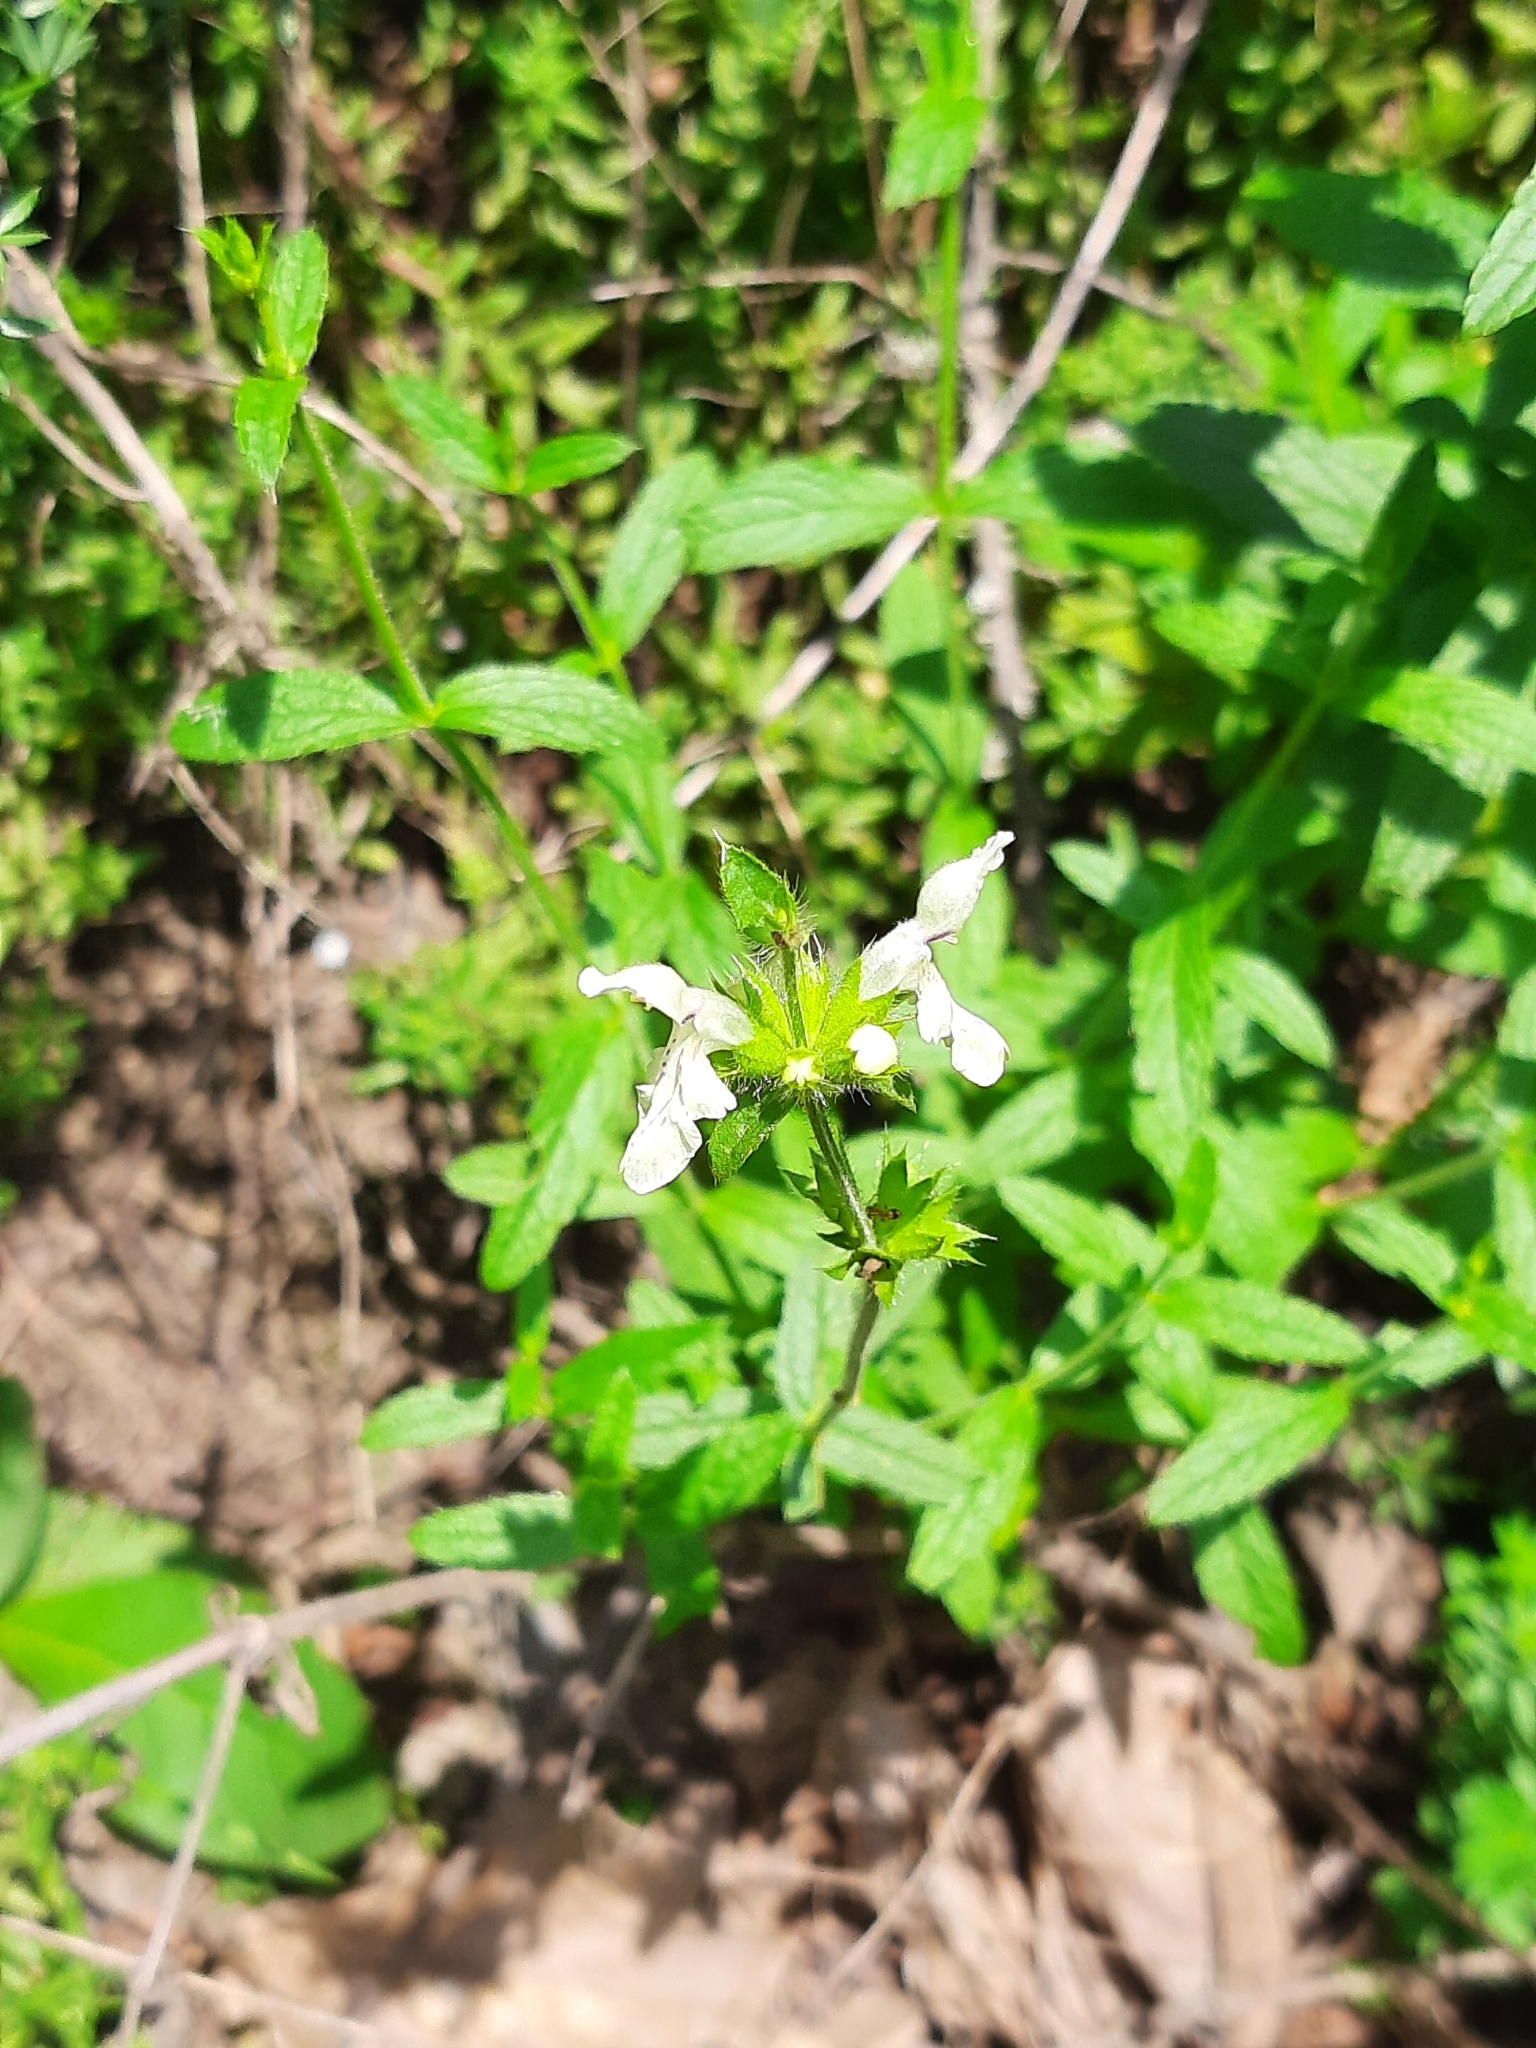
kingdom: Plantae
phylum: Tracheophyta
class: Magnoliopsida
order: Lamiales
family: Lamiaceae
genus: Stachys
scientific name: Stachys recta
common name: Perennial yellow-woundwort
